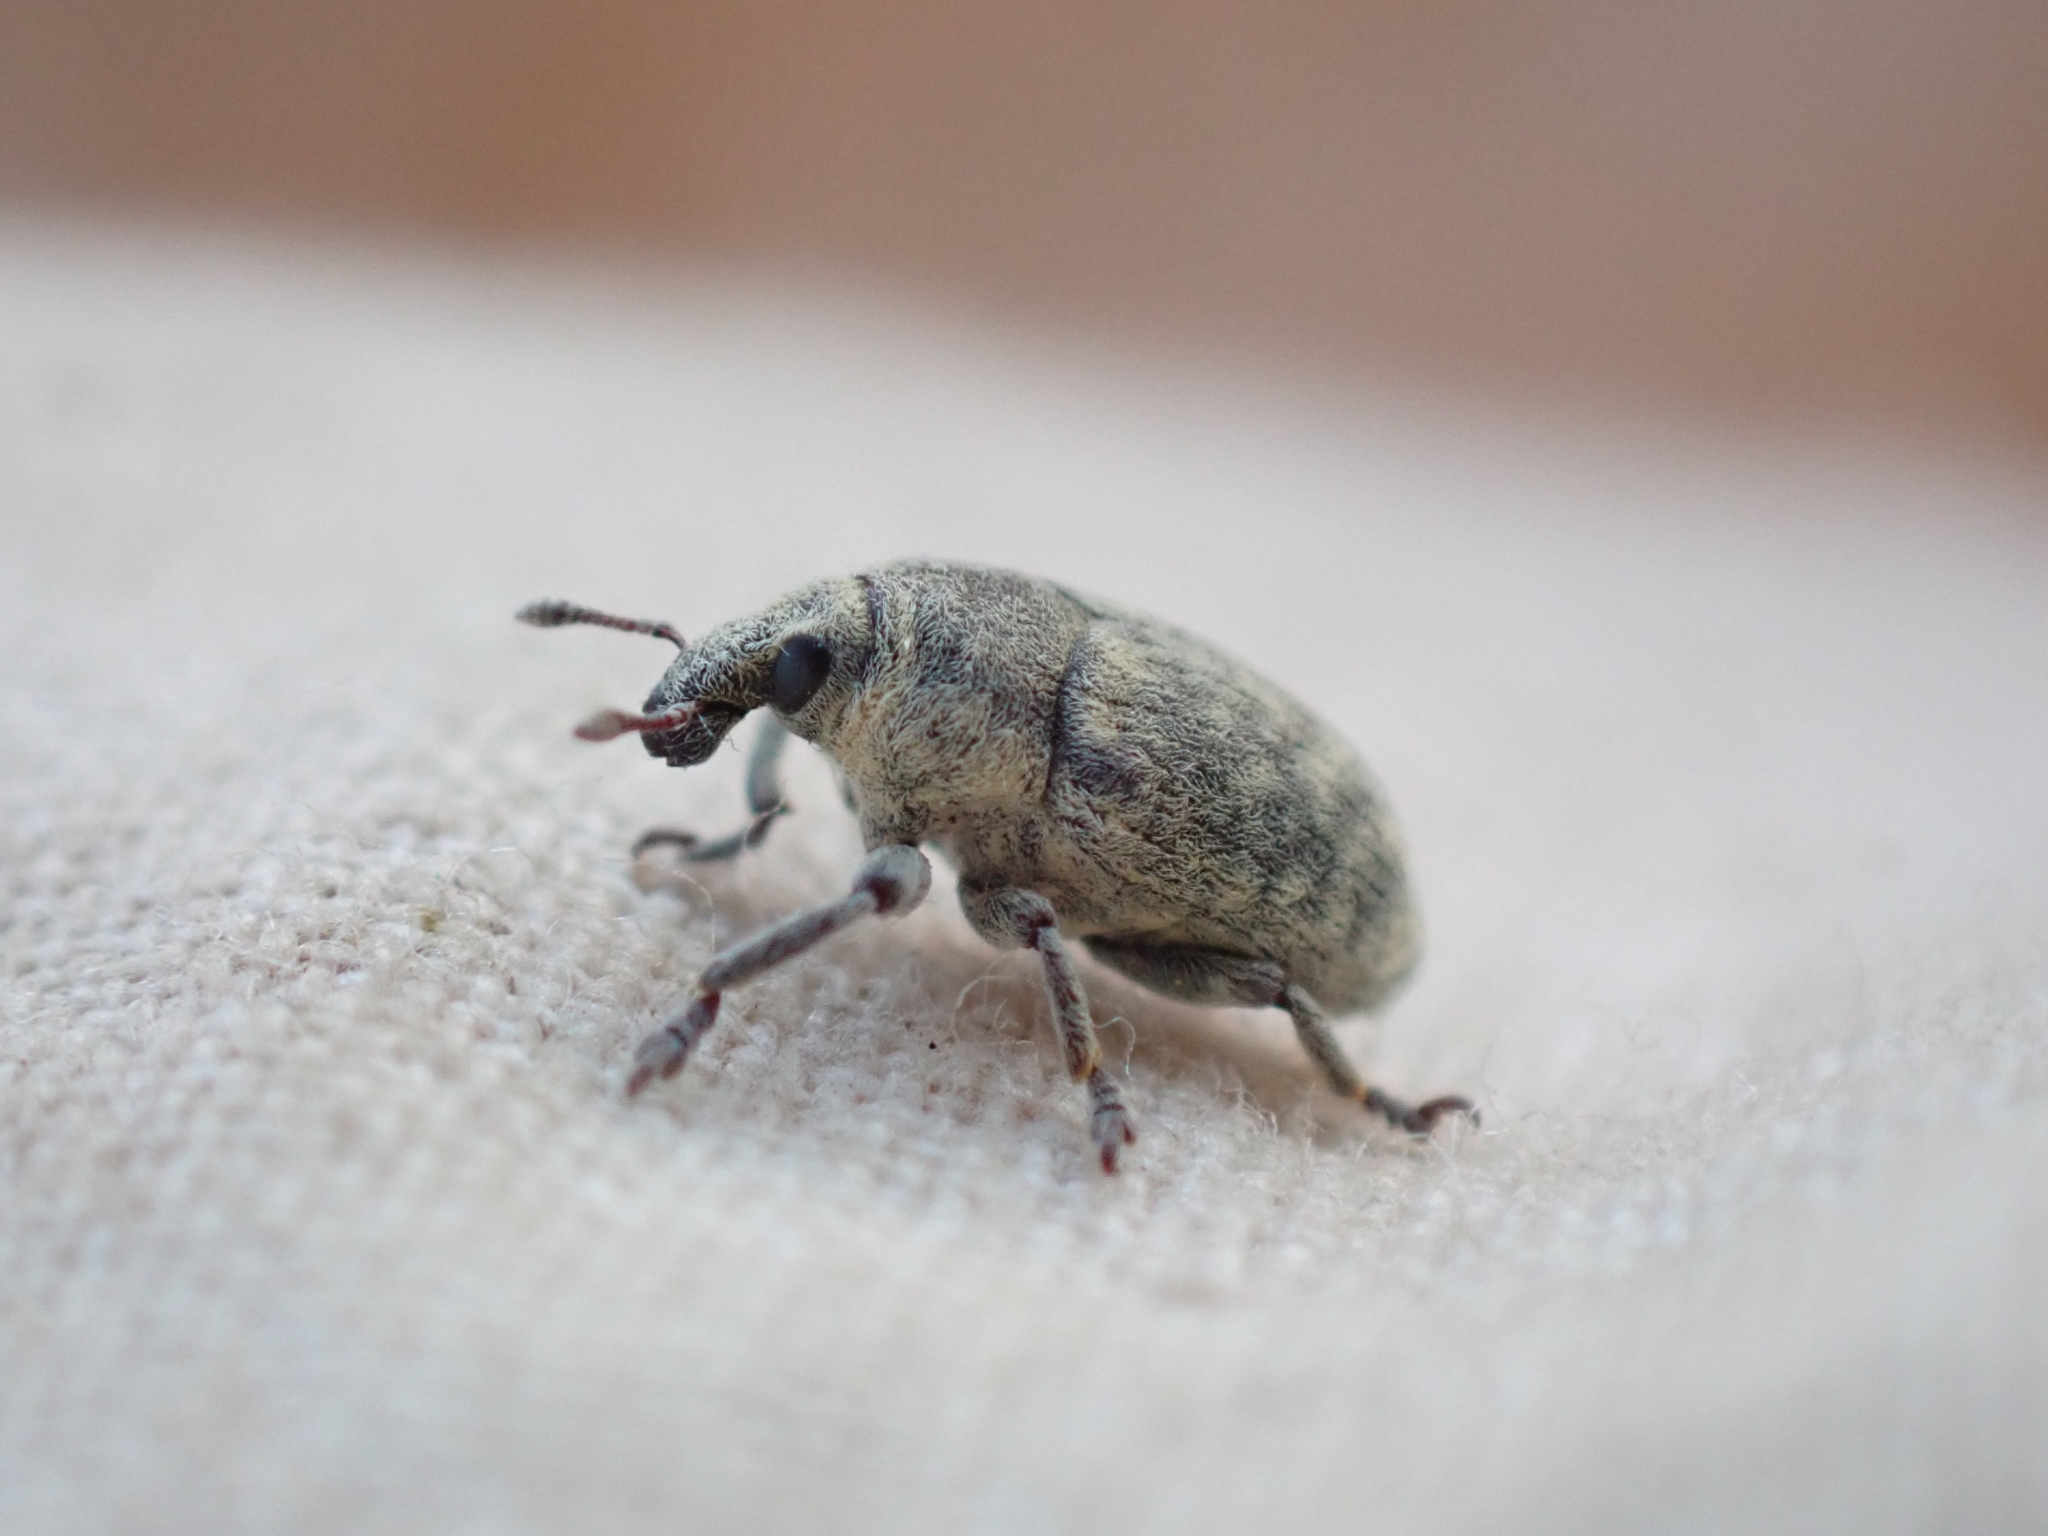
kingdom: Animalia
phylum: Arthropoda
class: Insecta
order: Coleoptera
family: Curculionidae
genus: Larinus
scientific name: Larinus minutus
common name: Weevil
